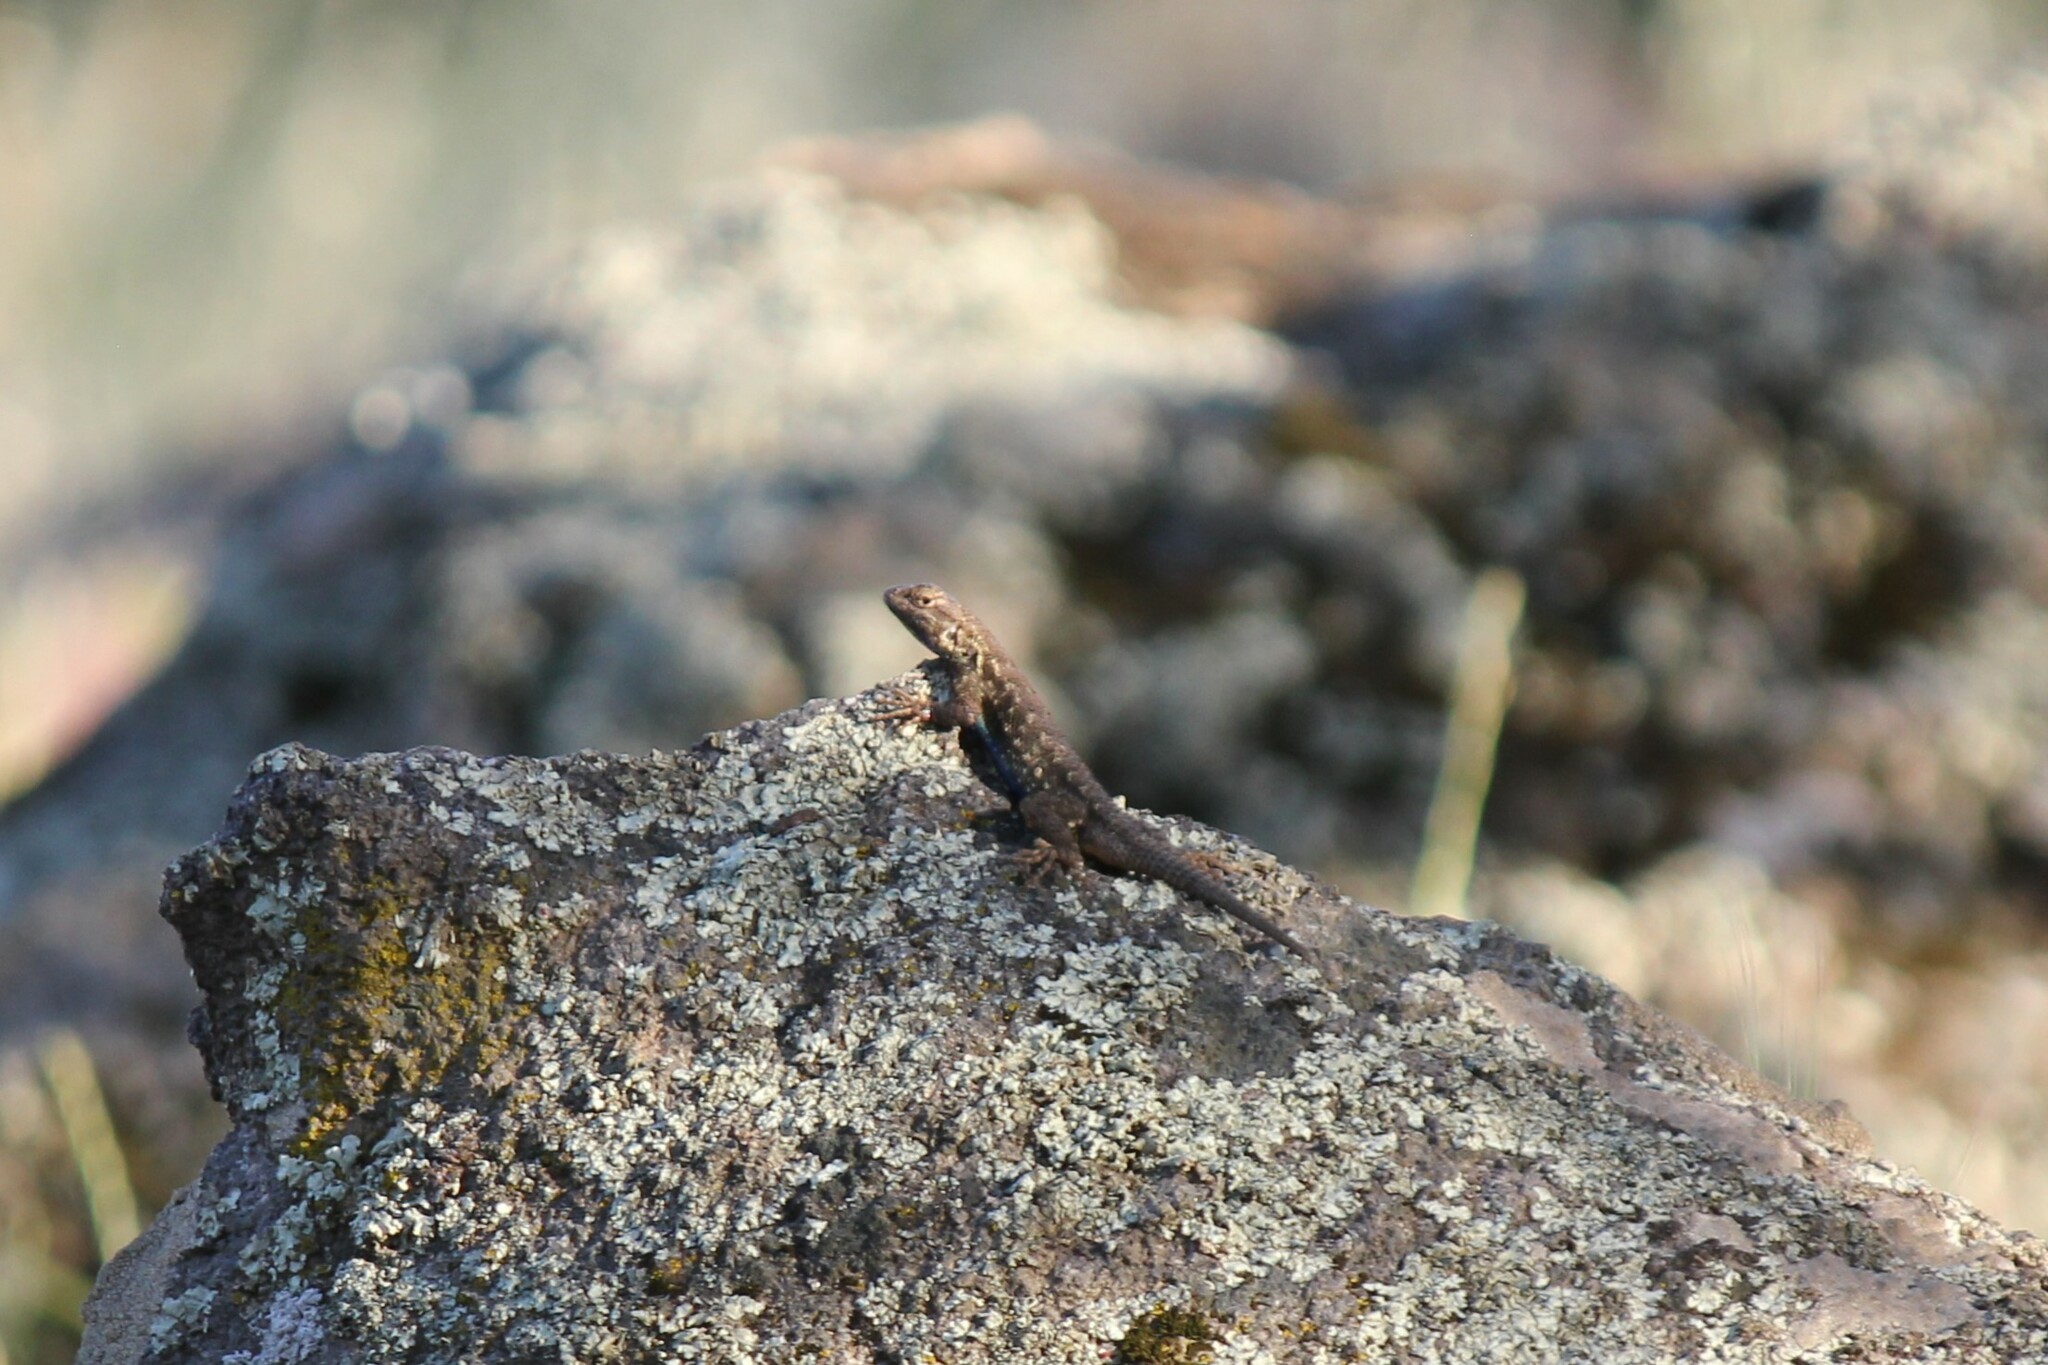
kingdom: Animalia
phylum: Chordata
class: Squamata
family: Phrynosomatidae
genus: Sceloporus
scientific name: Sceloporus occidentalis
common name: Western fence lizard
